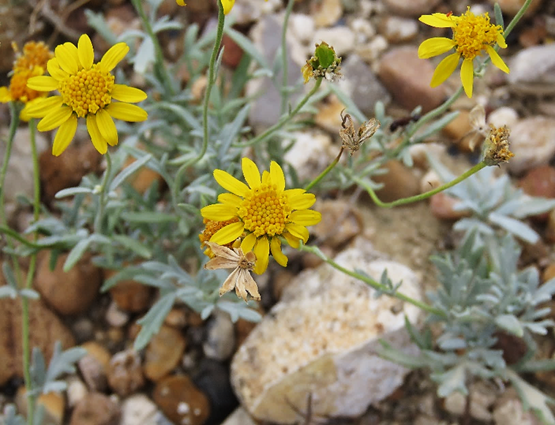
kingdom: Plantae
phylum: Tracheophyta
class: Magnoliopsida
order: Asterales
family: Asteraceae
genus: Picradeniopsis
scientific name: Picradeniopsis absinthifolia
